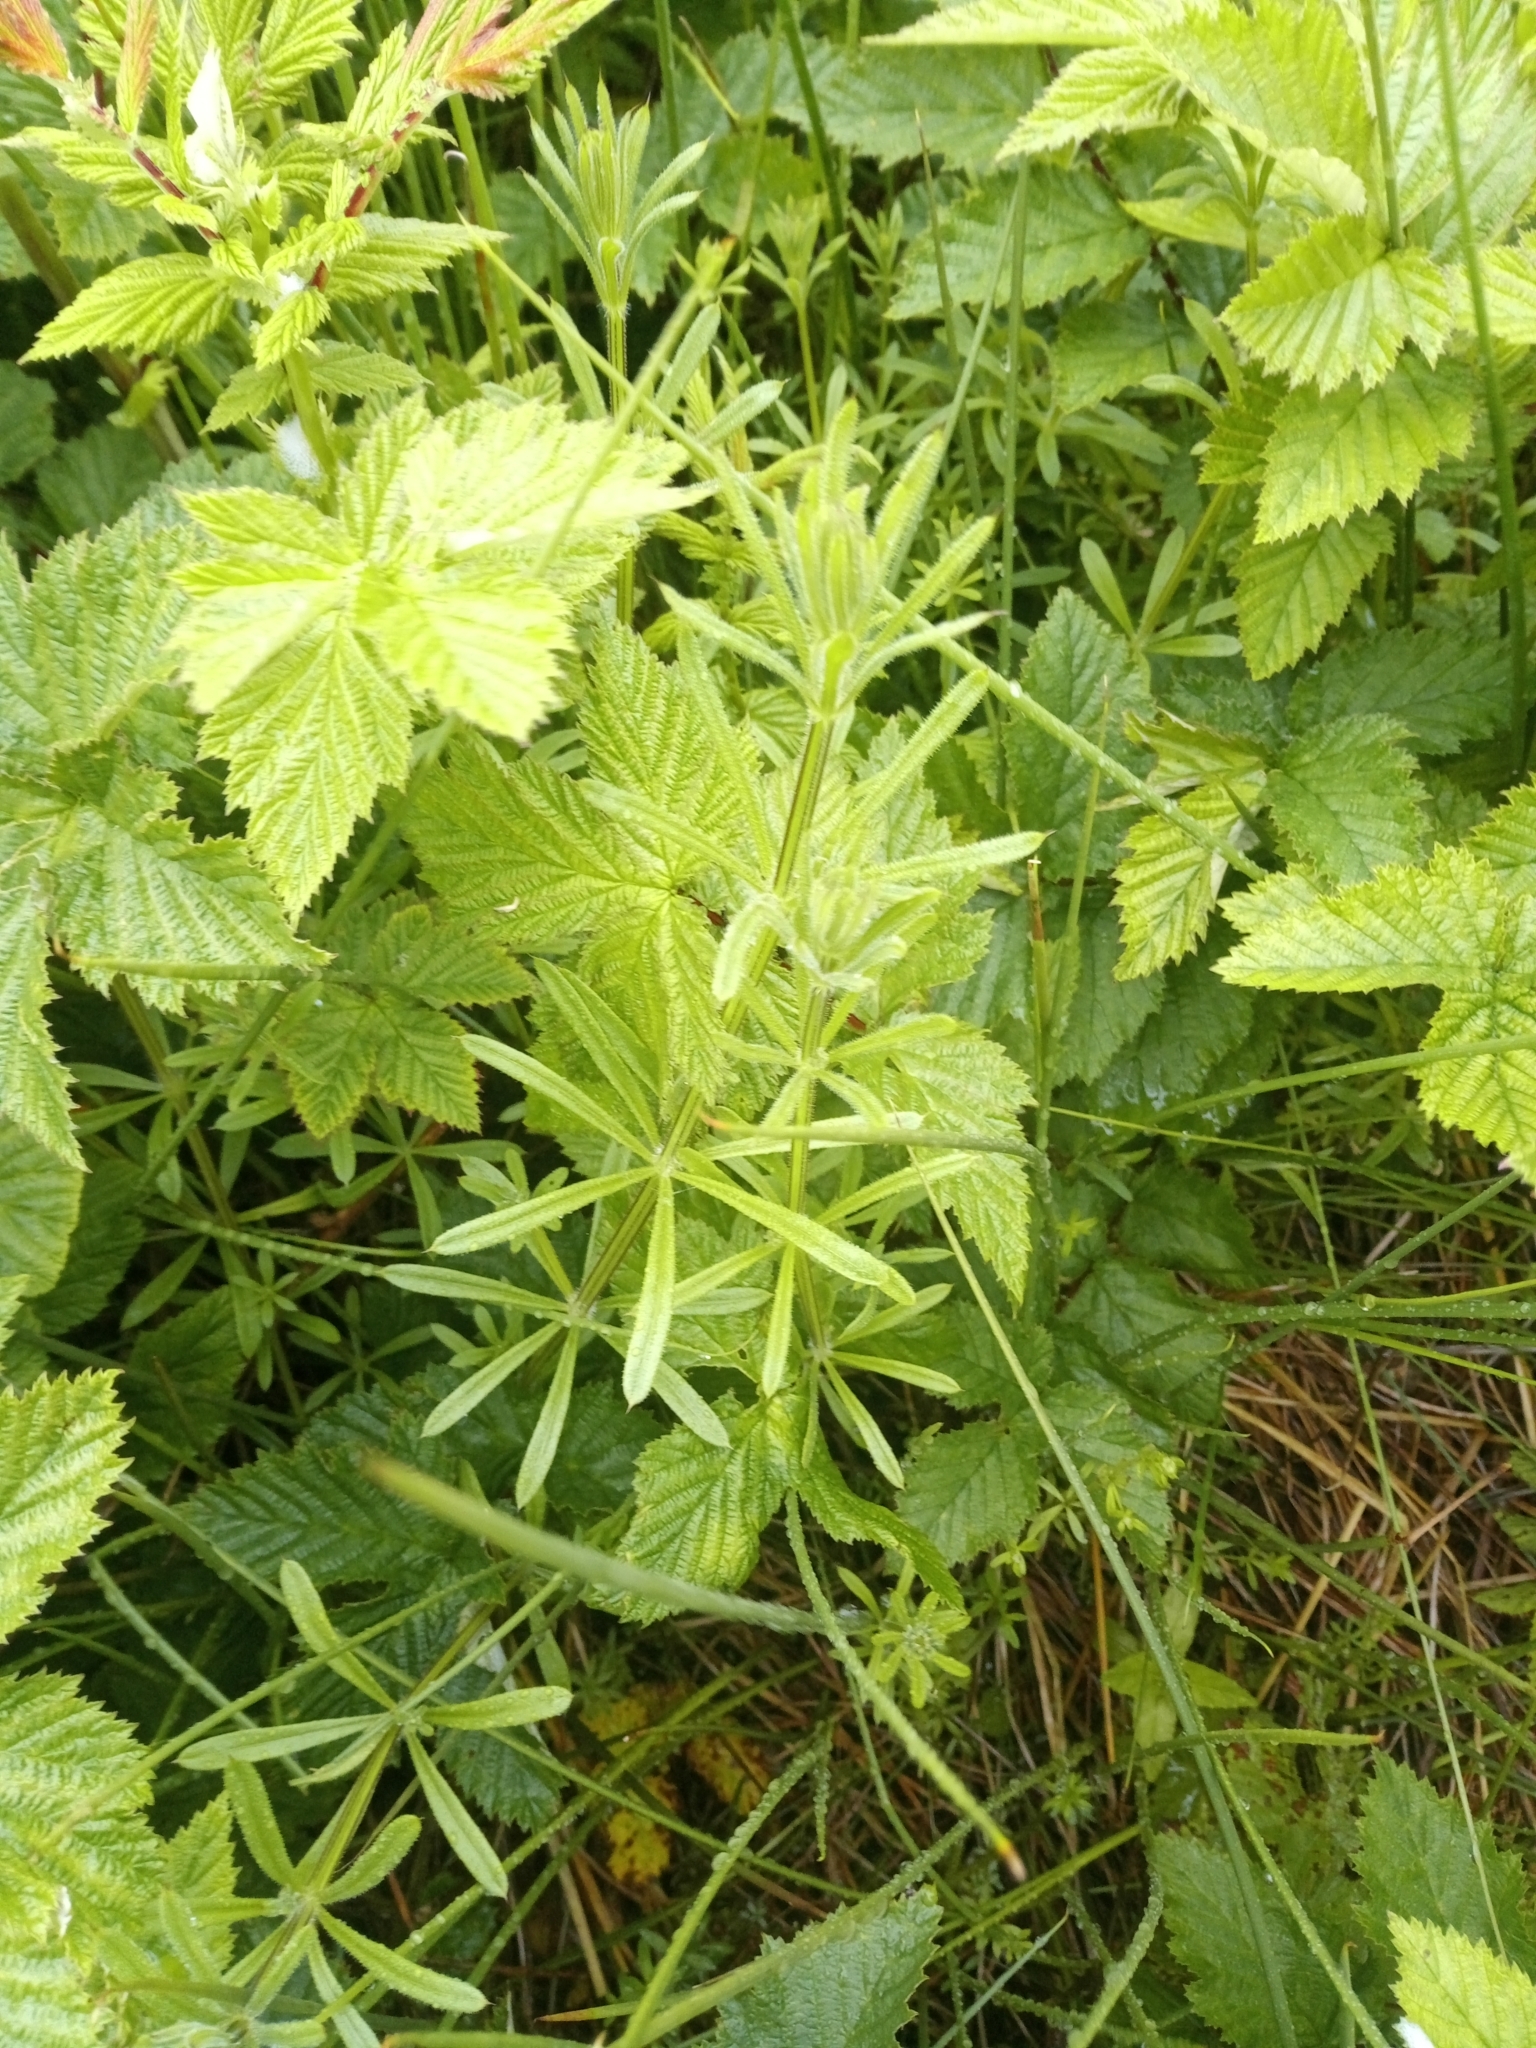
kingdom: Plantae
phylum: Tracheophyta
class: Magnoliopsida
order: Gentianales
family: Rubiaceae
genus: Galium
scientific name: Galium aparine
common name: Cleavers
